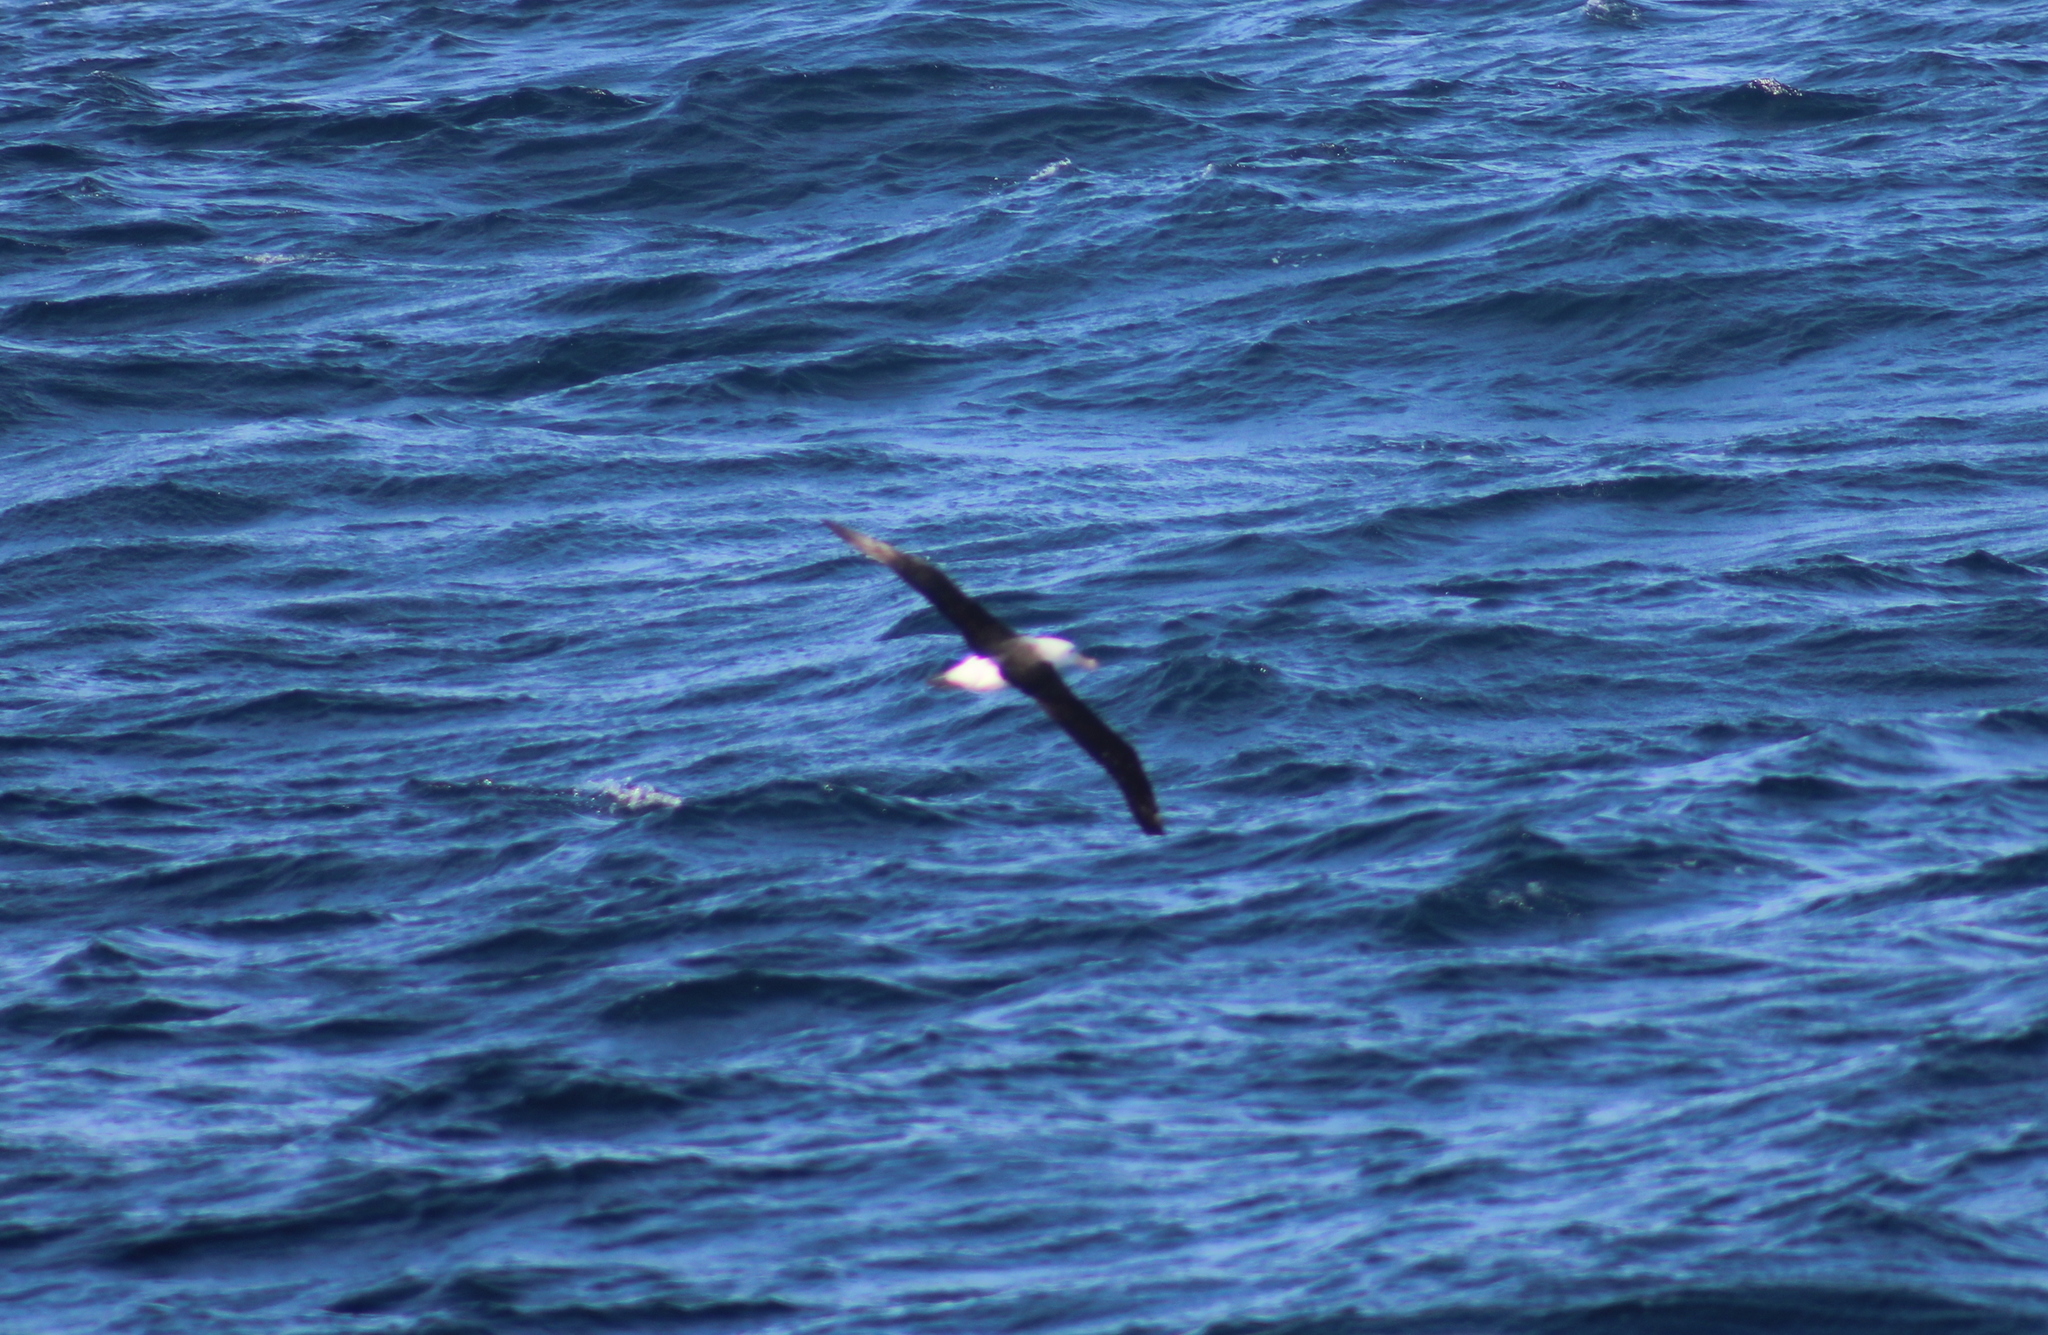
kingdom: Animalia
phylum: Chordata
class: Aves
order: Procellariiformes
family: Diomedeidae
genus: Thalassarche
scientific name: Thalassarche melanophris
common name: Black-browed albatross
